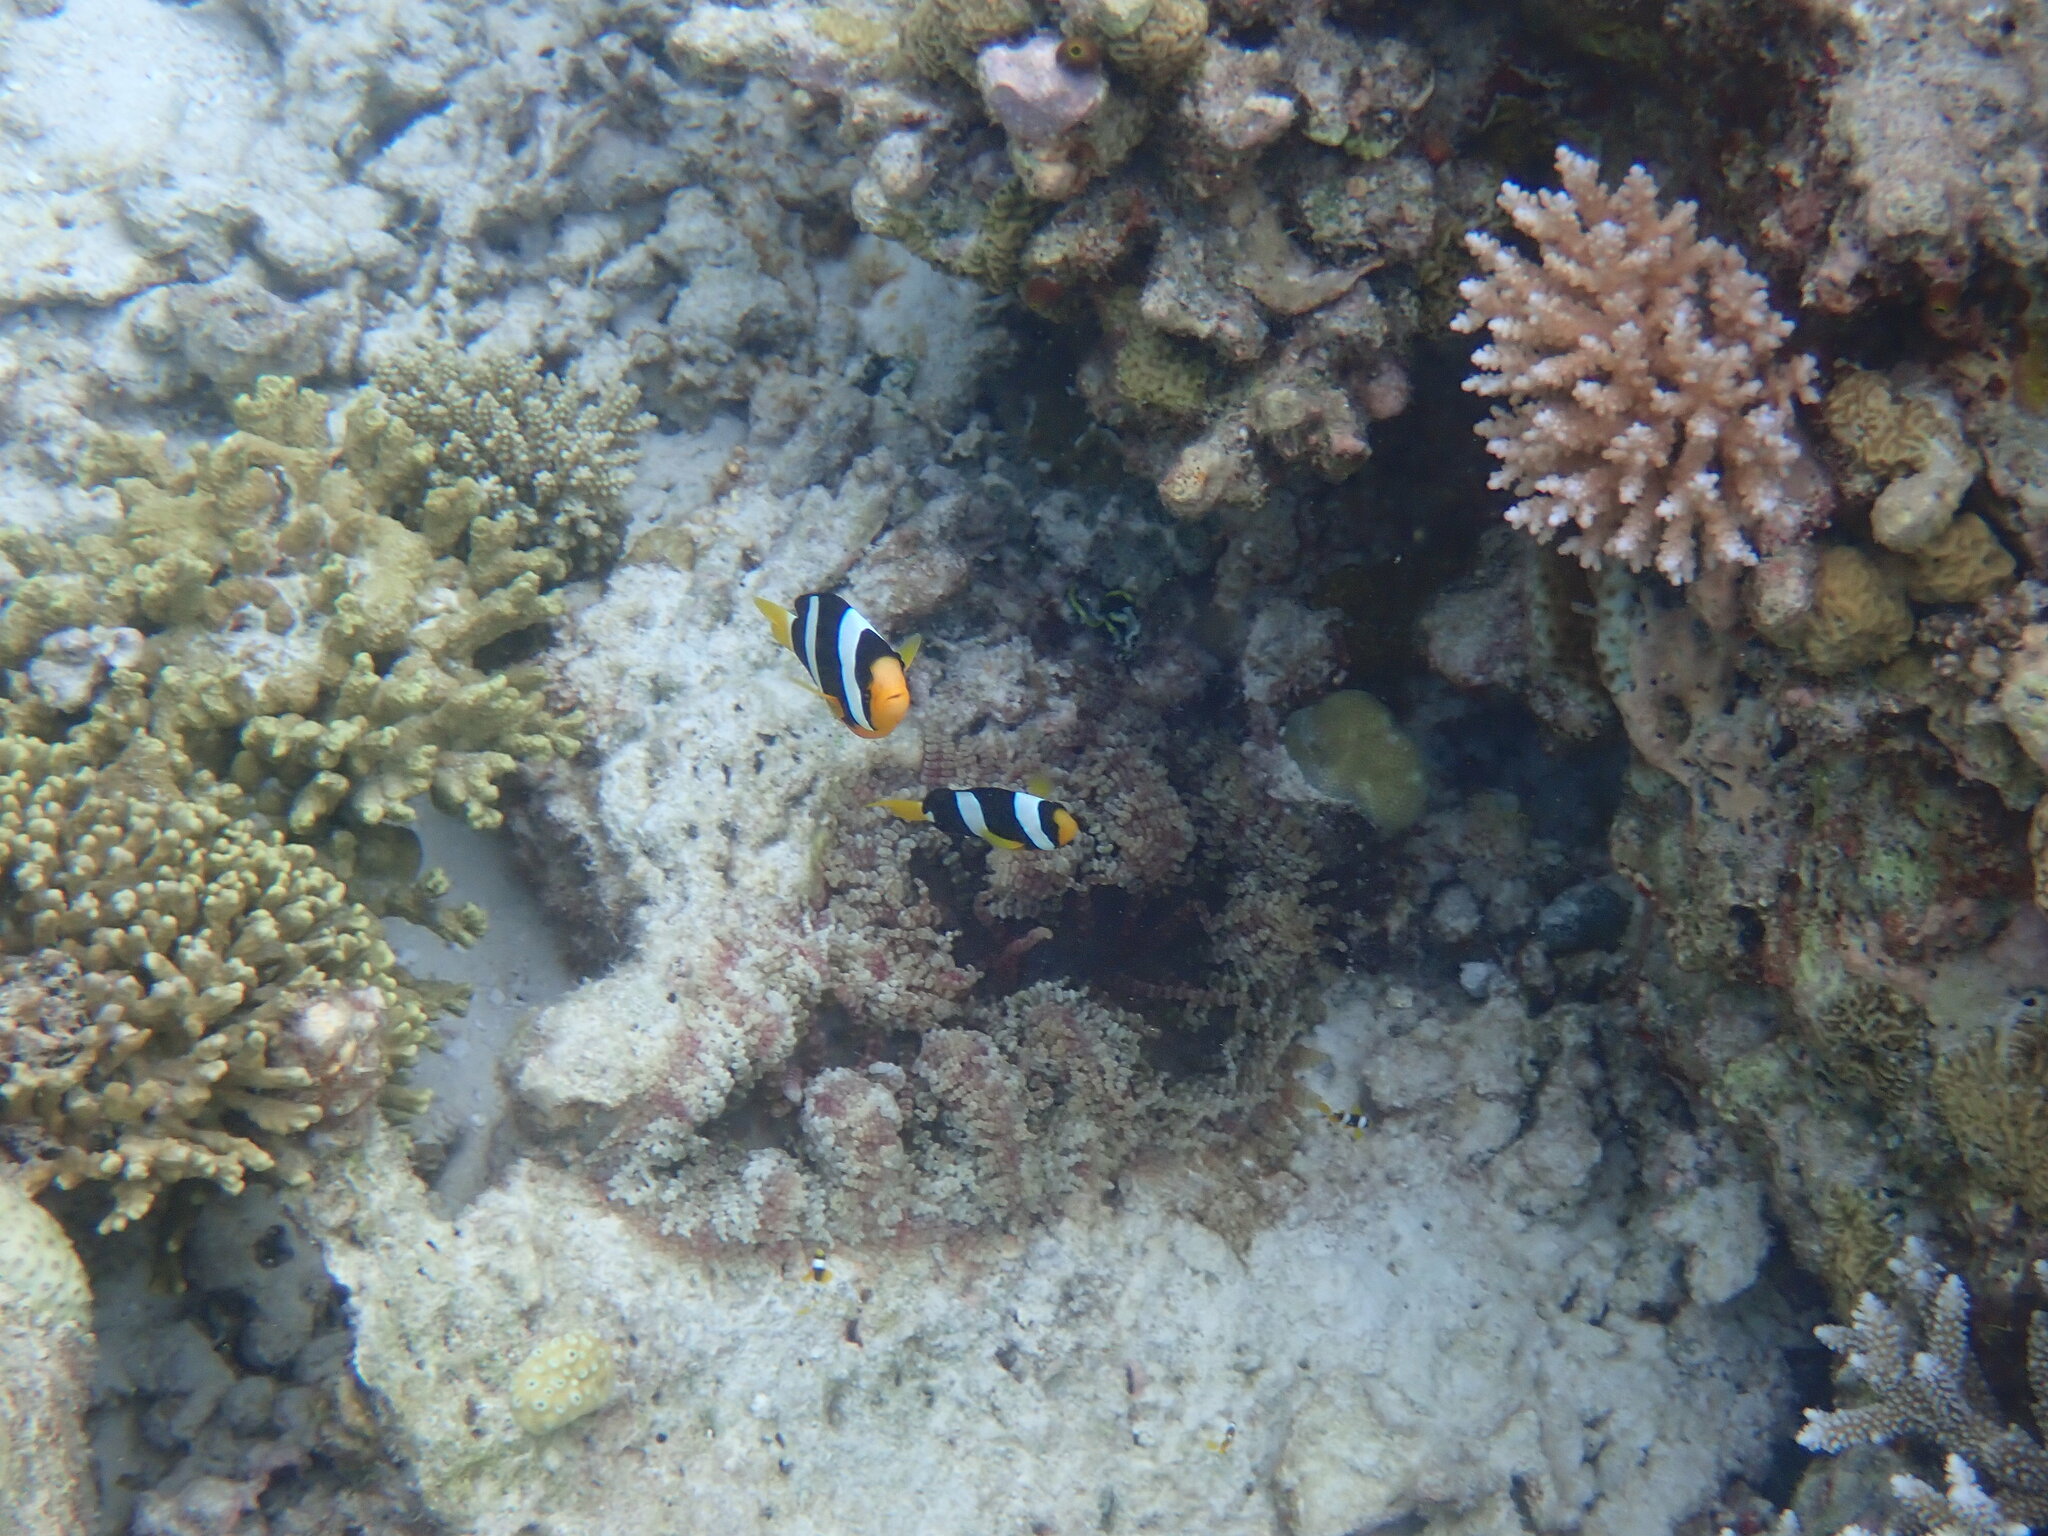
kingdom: Animalia
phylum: Chordata
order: Perciformes
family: Pomacentridae
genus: Amphiprion
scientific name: Amphiprion clarkii
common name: Clark's anemonefish
